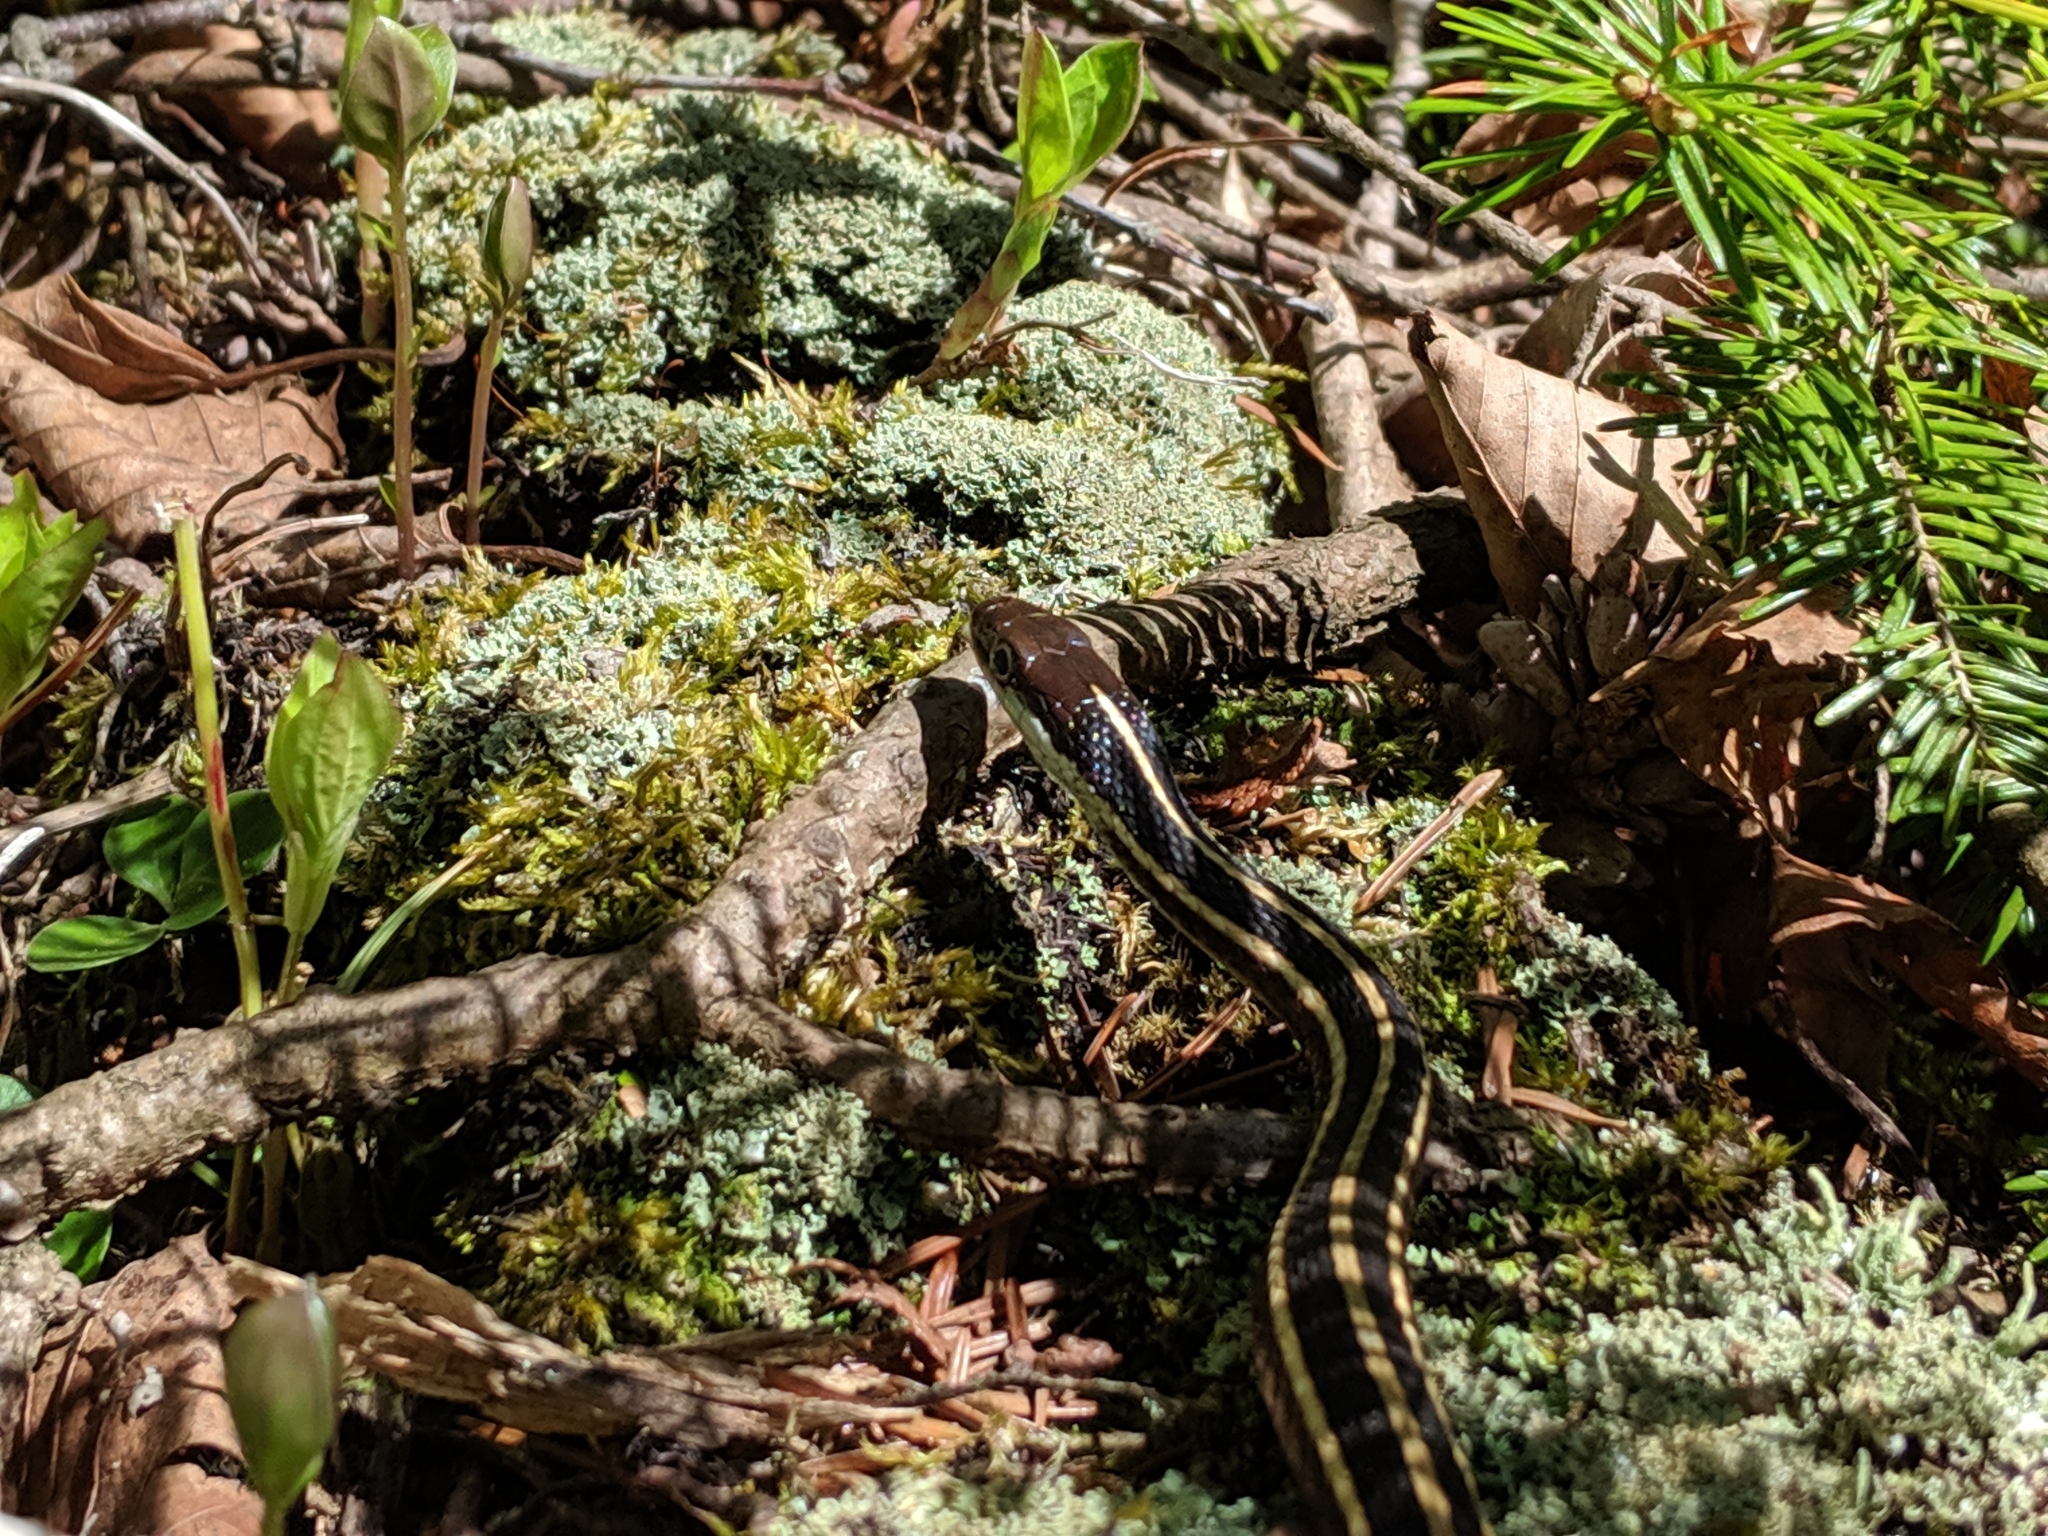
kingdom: Animalia
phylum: Chordata
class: Squamata
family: Colubridae
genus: Thamnophis
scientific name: Thamnophis saurita
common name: Eastern ribbonsnake
